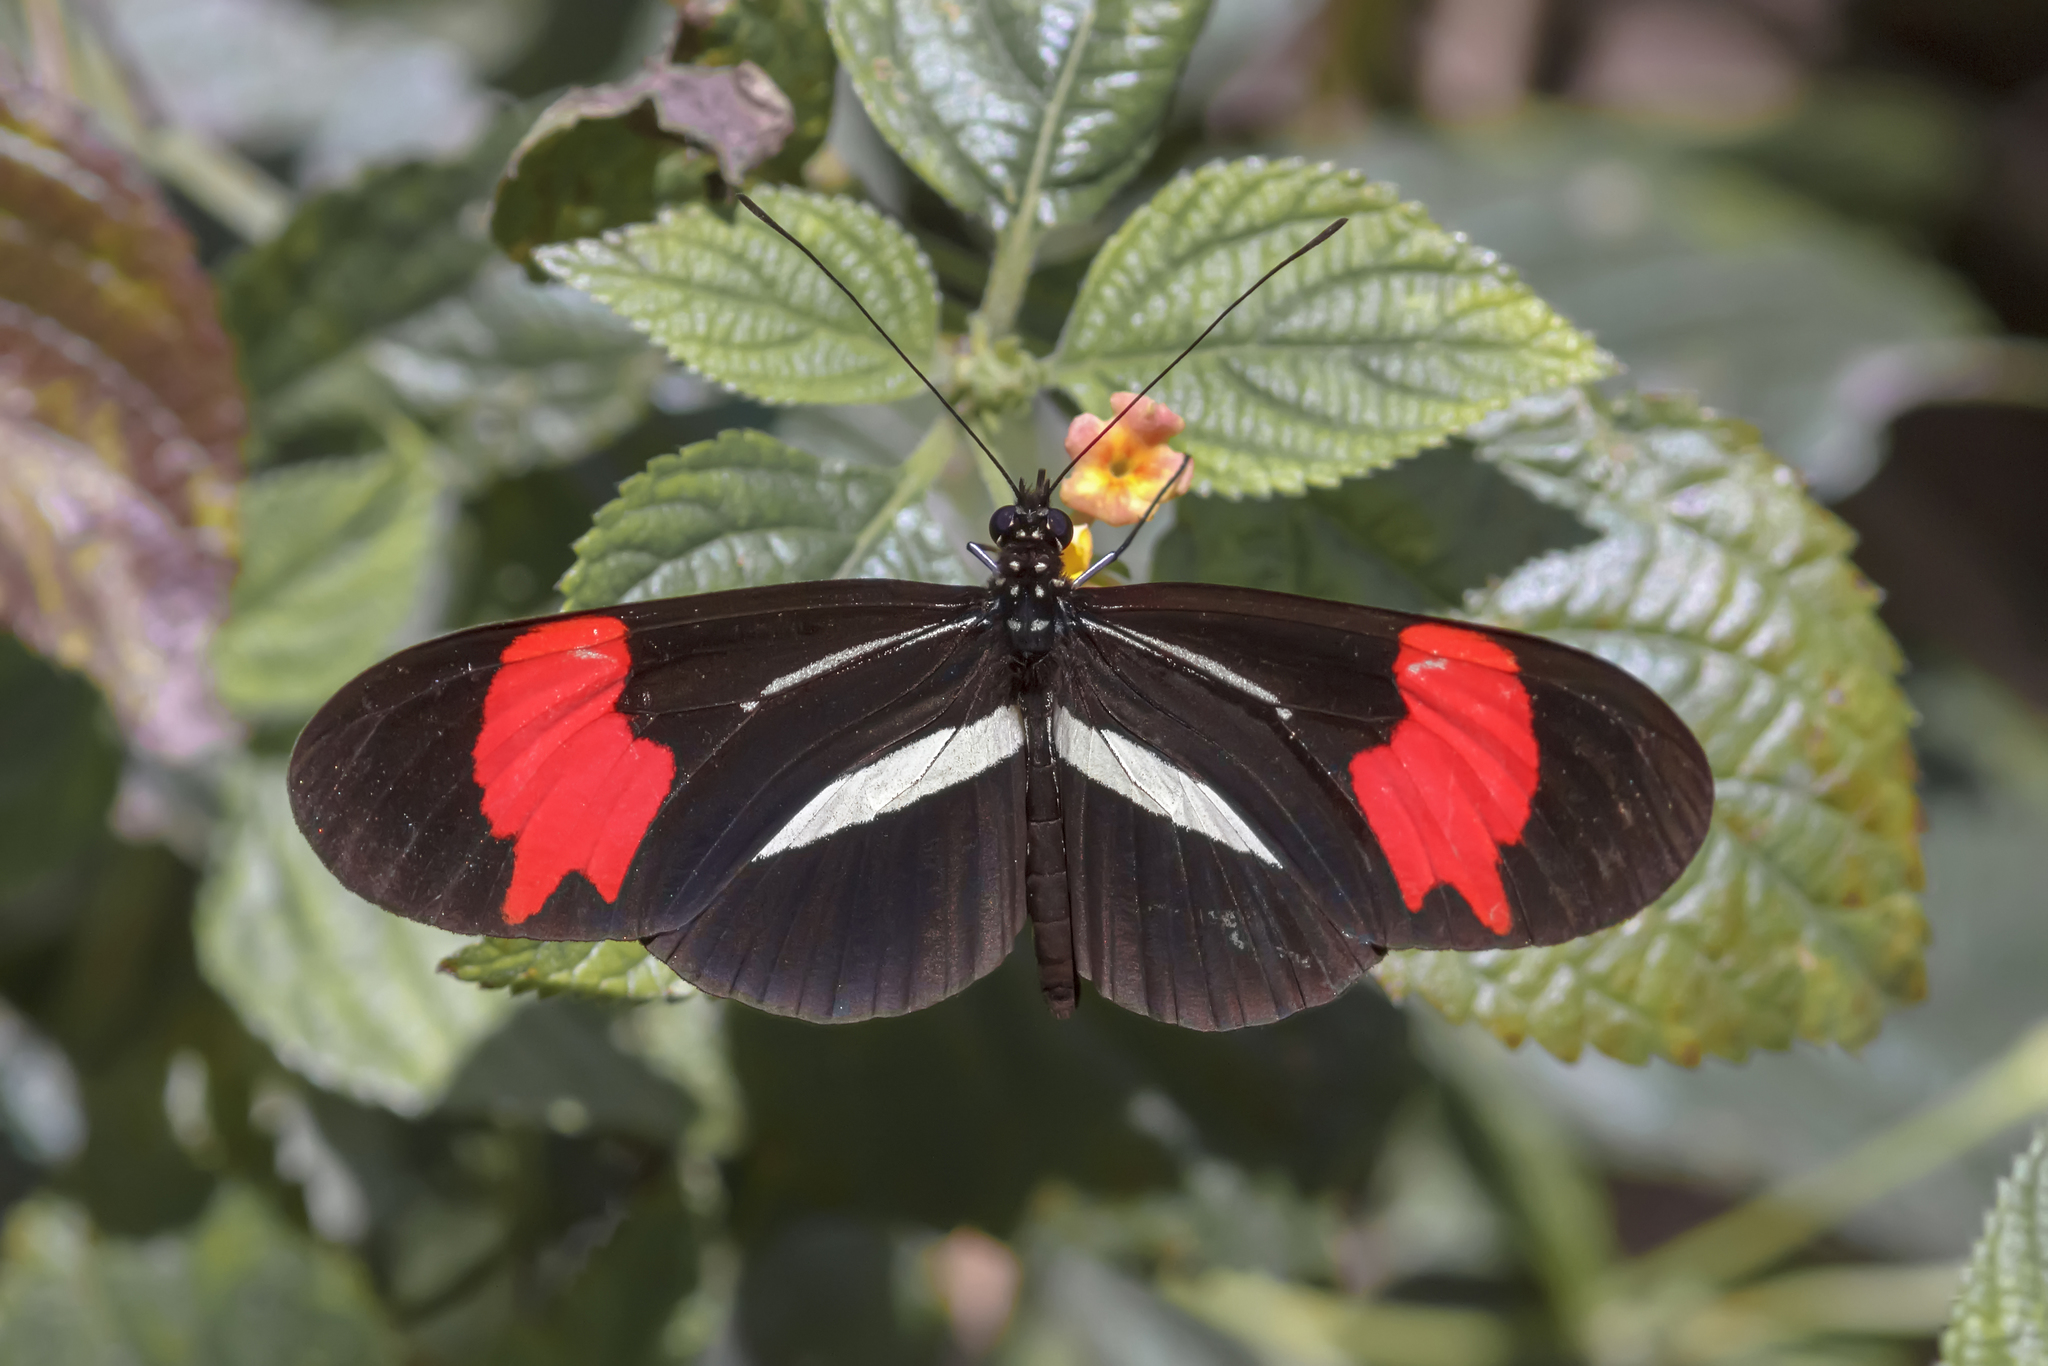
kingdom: Animalia
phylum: Arthropoda
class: Insecta
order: Lepidoptera
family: Nymphalidae
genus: Heliconius
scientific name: Heliconius erato
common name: Common patch longwing
